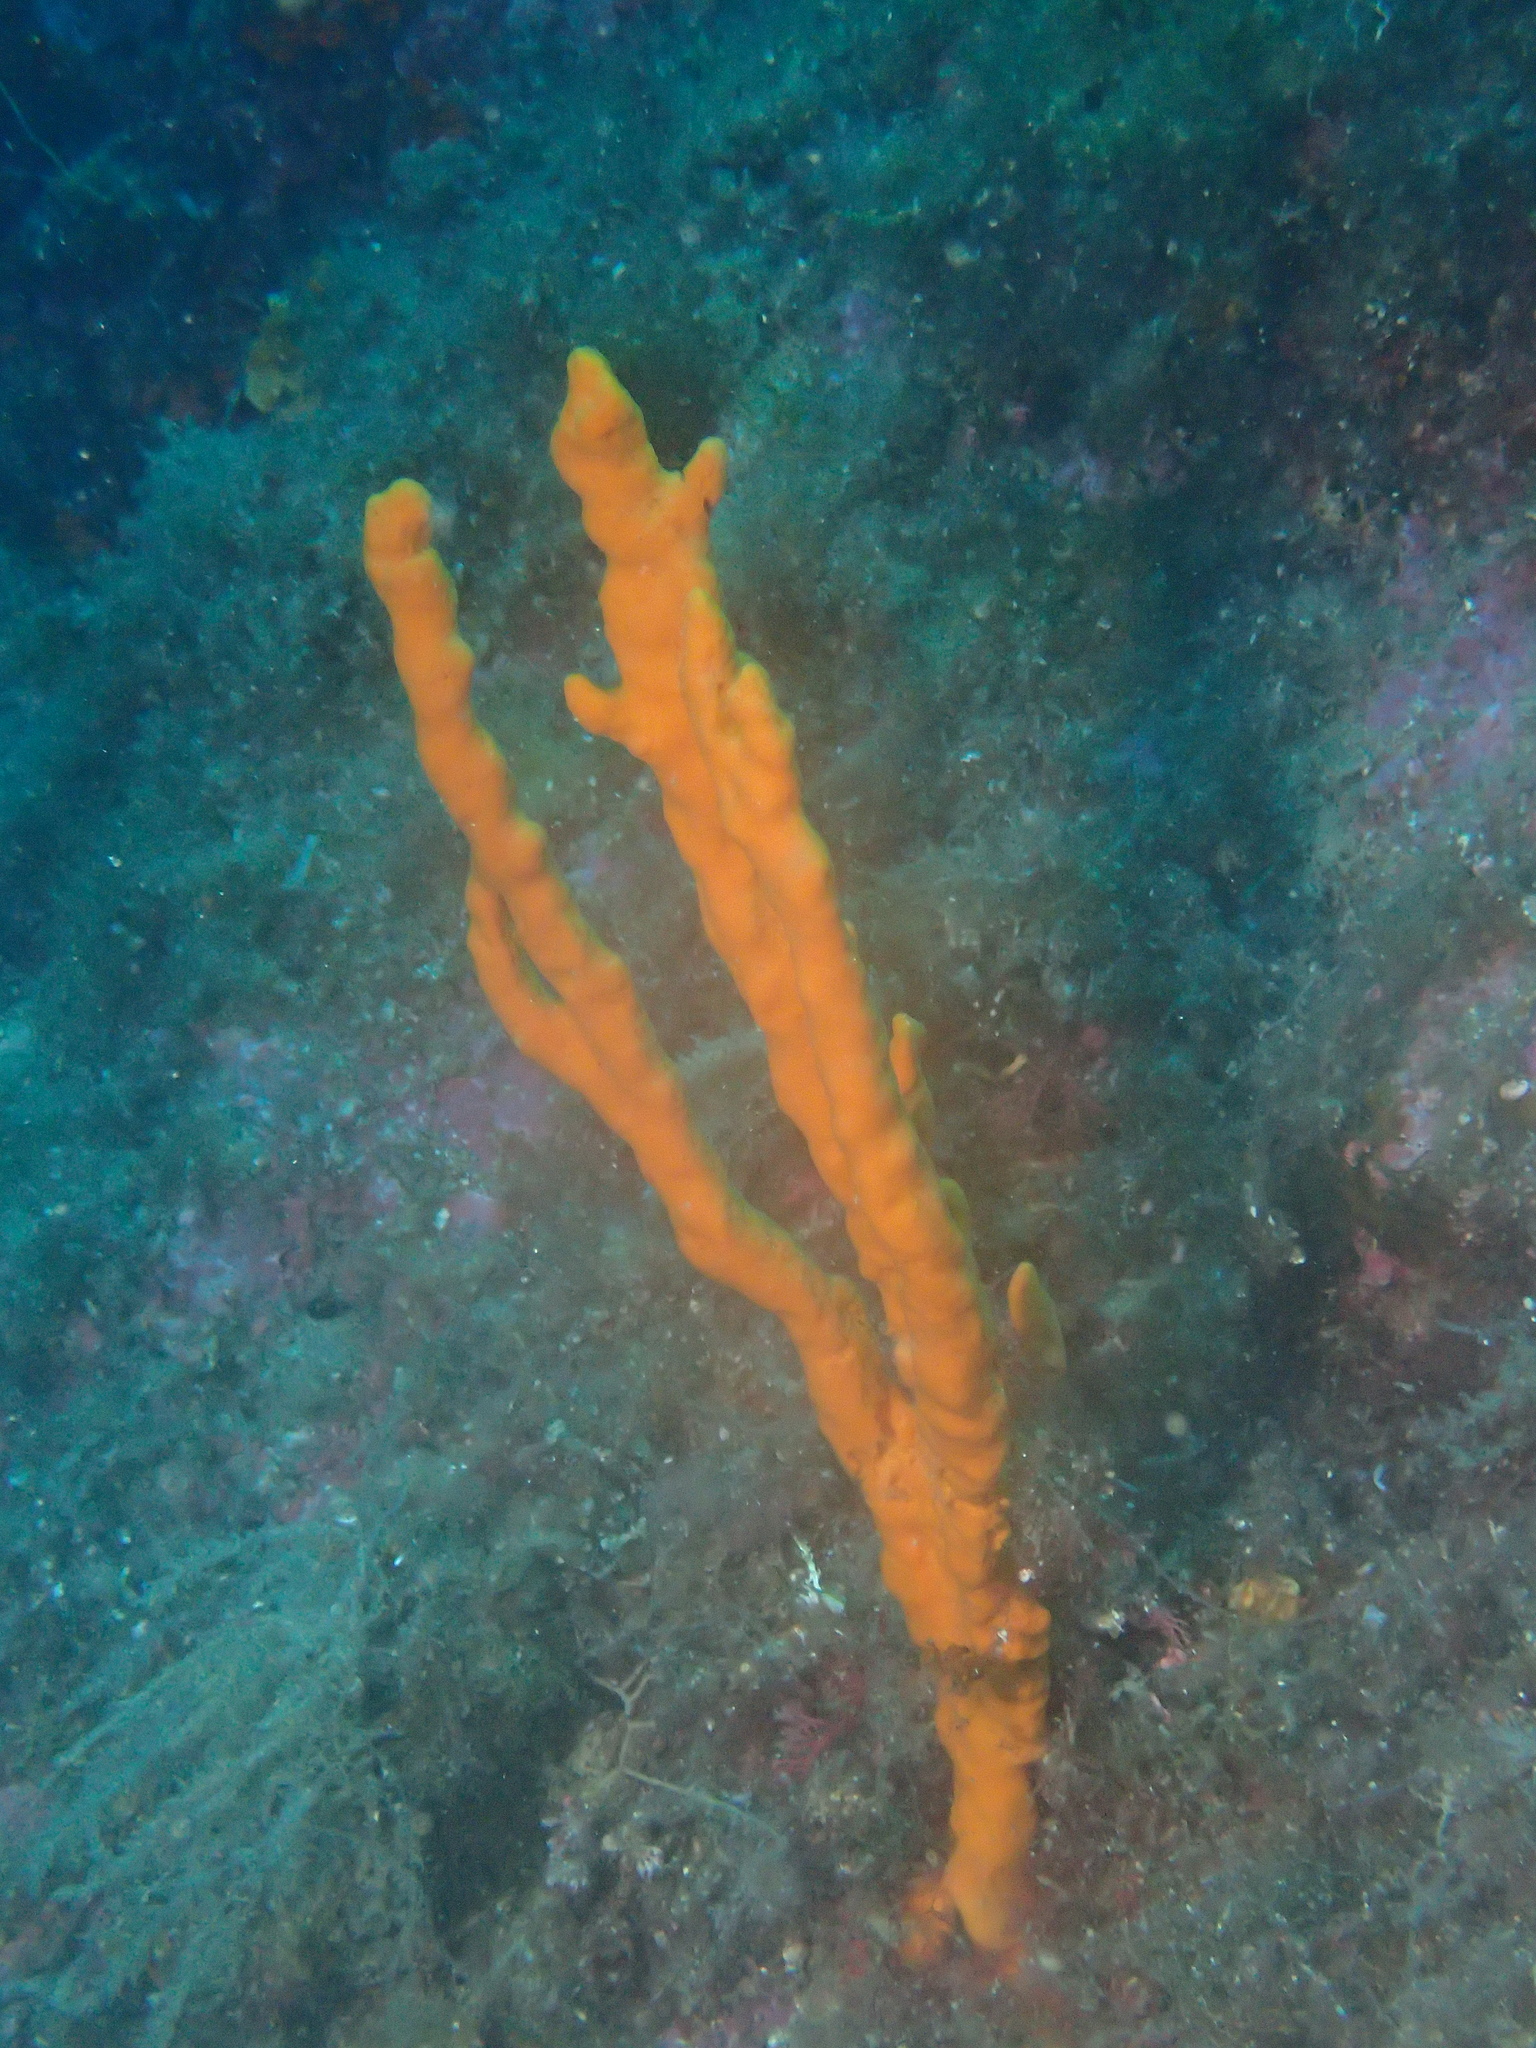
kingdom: Animalia
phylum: Porifera
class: Demospongiae
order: Axinellida
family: Axinellidae
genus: Axinella
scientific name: Axinella polypoides
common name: Common antlers sponge
